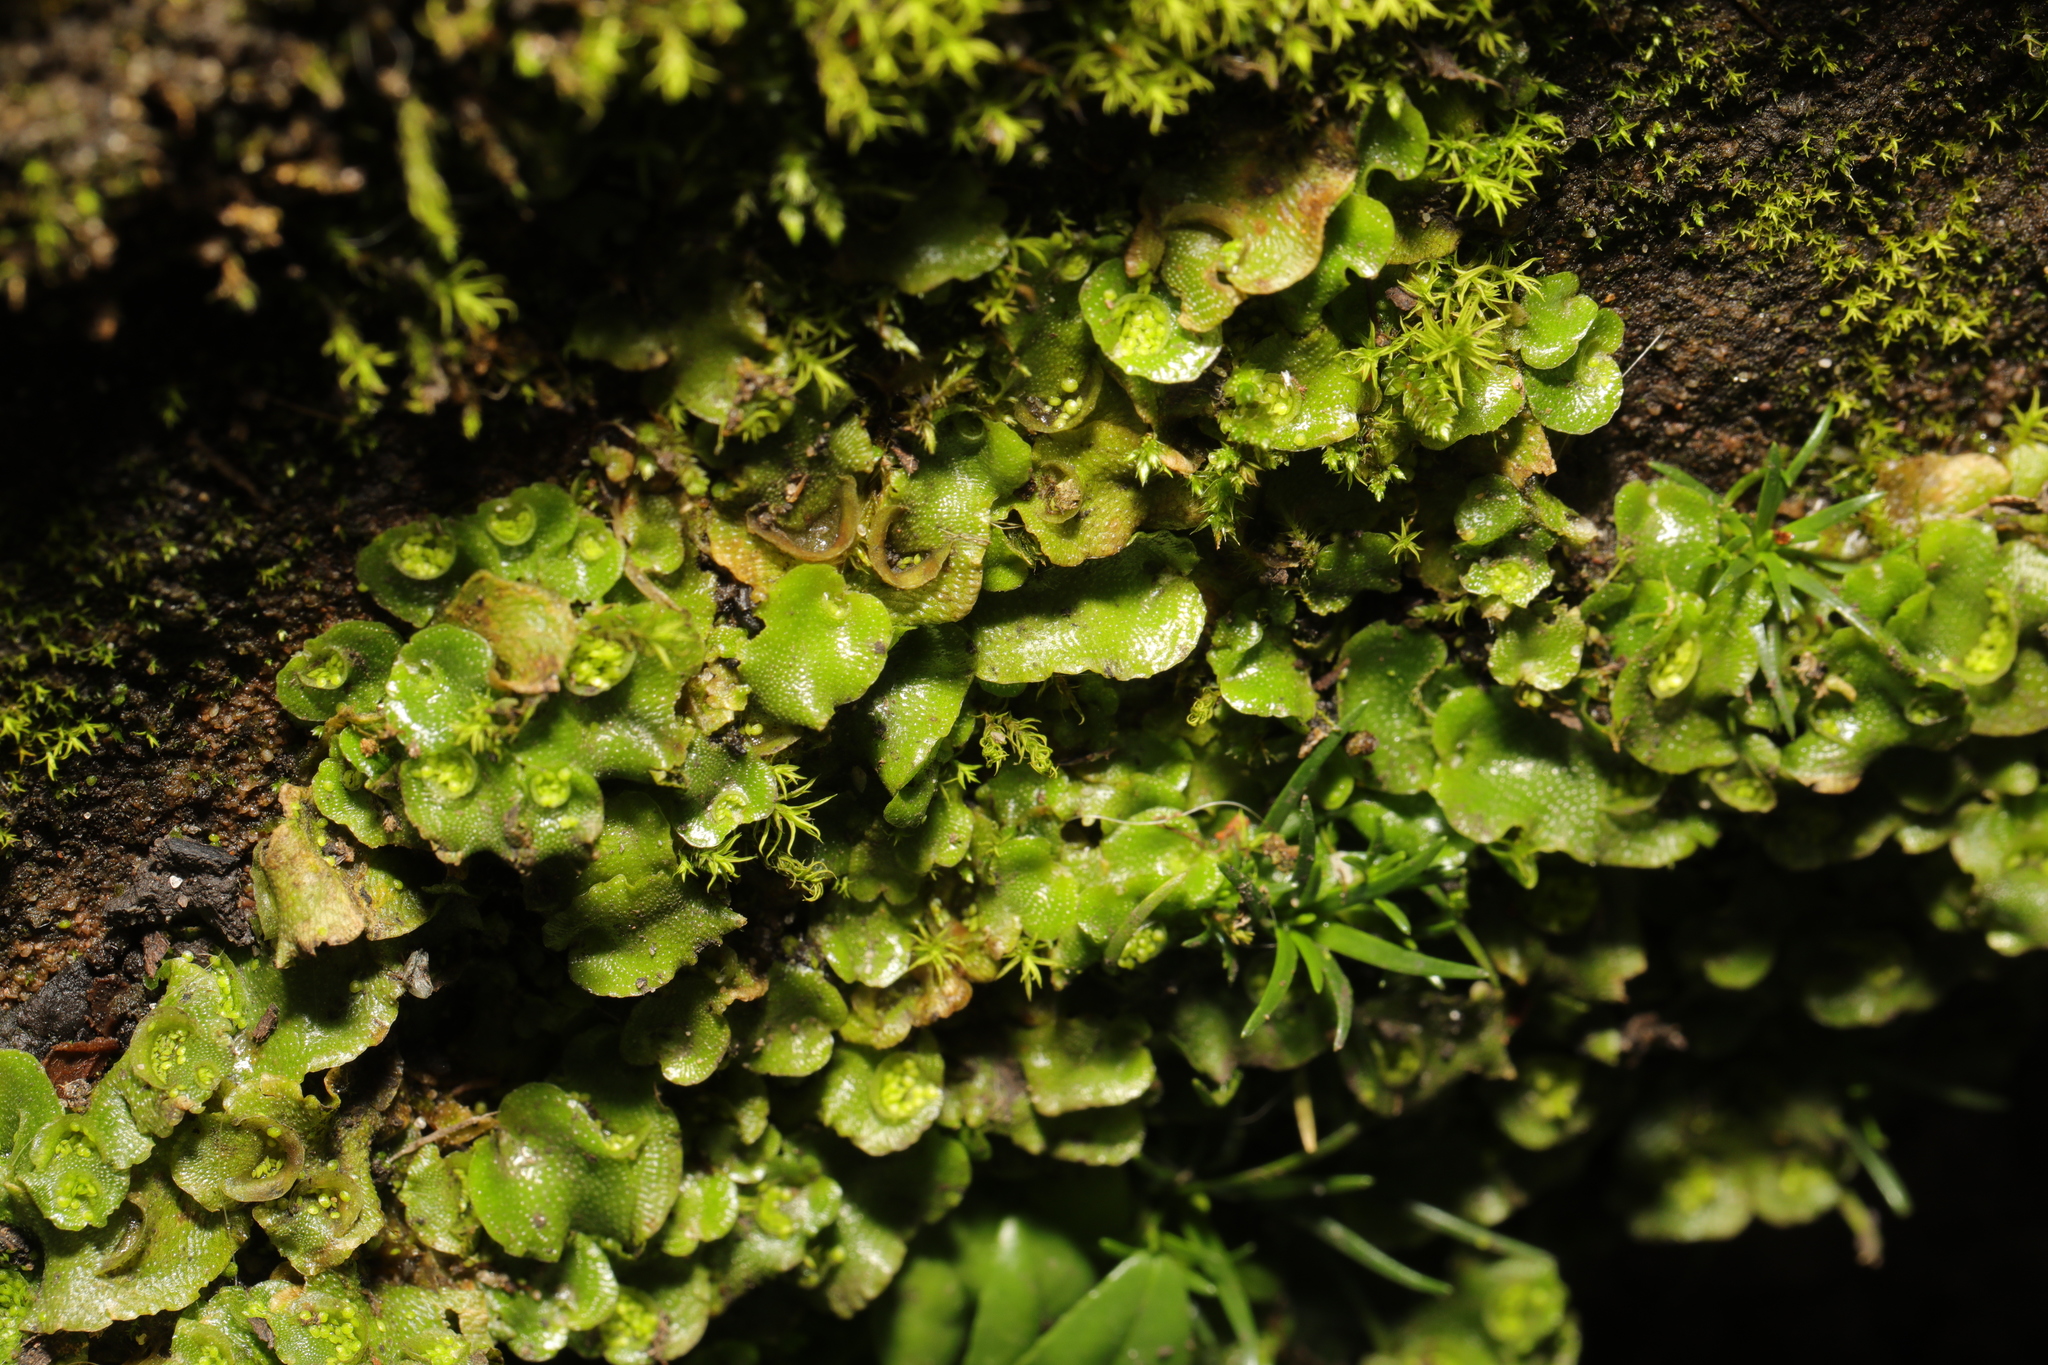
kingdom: Plantae
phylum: Marchantiophyta
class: Marchantiopsida
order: Lunulariales
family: Lunulariaceae
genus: Lunularia
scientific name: Lunularia cruciata
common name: Crescent-cup liverwort
